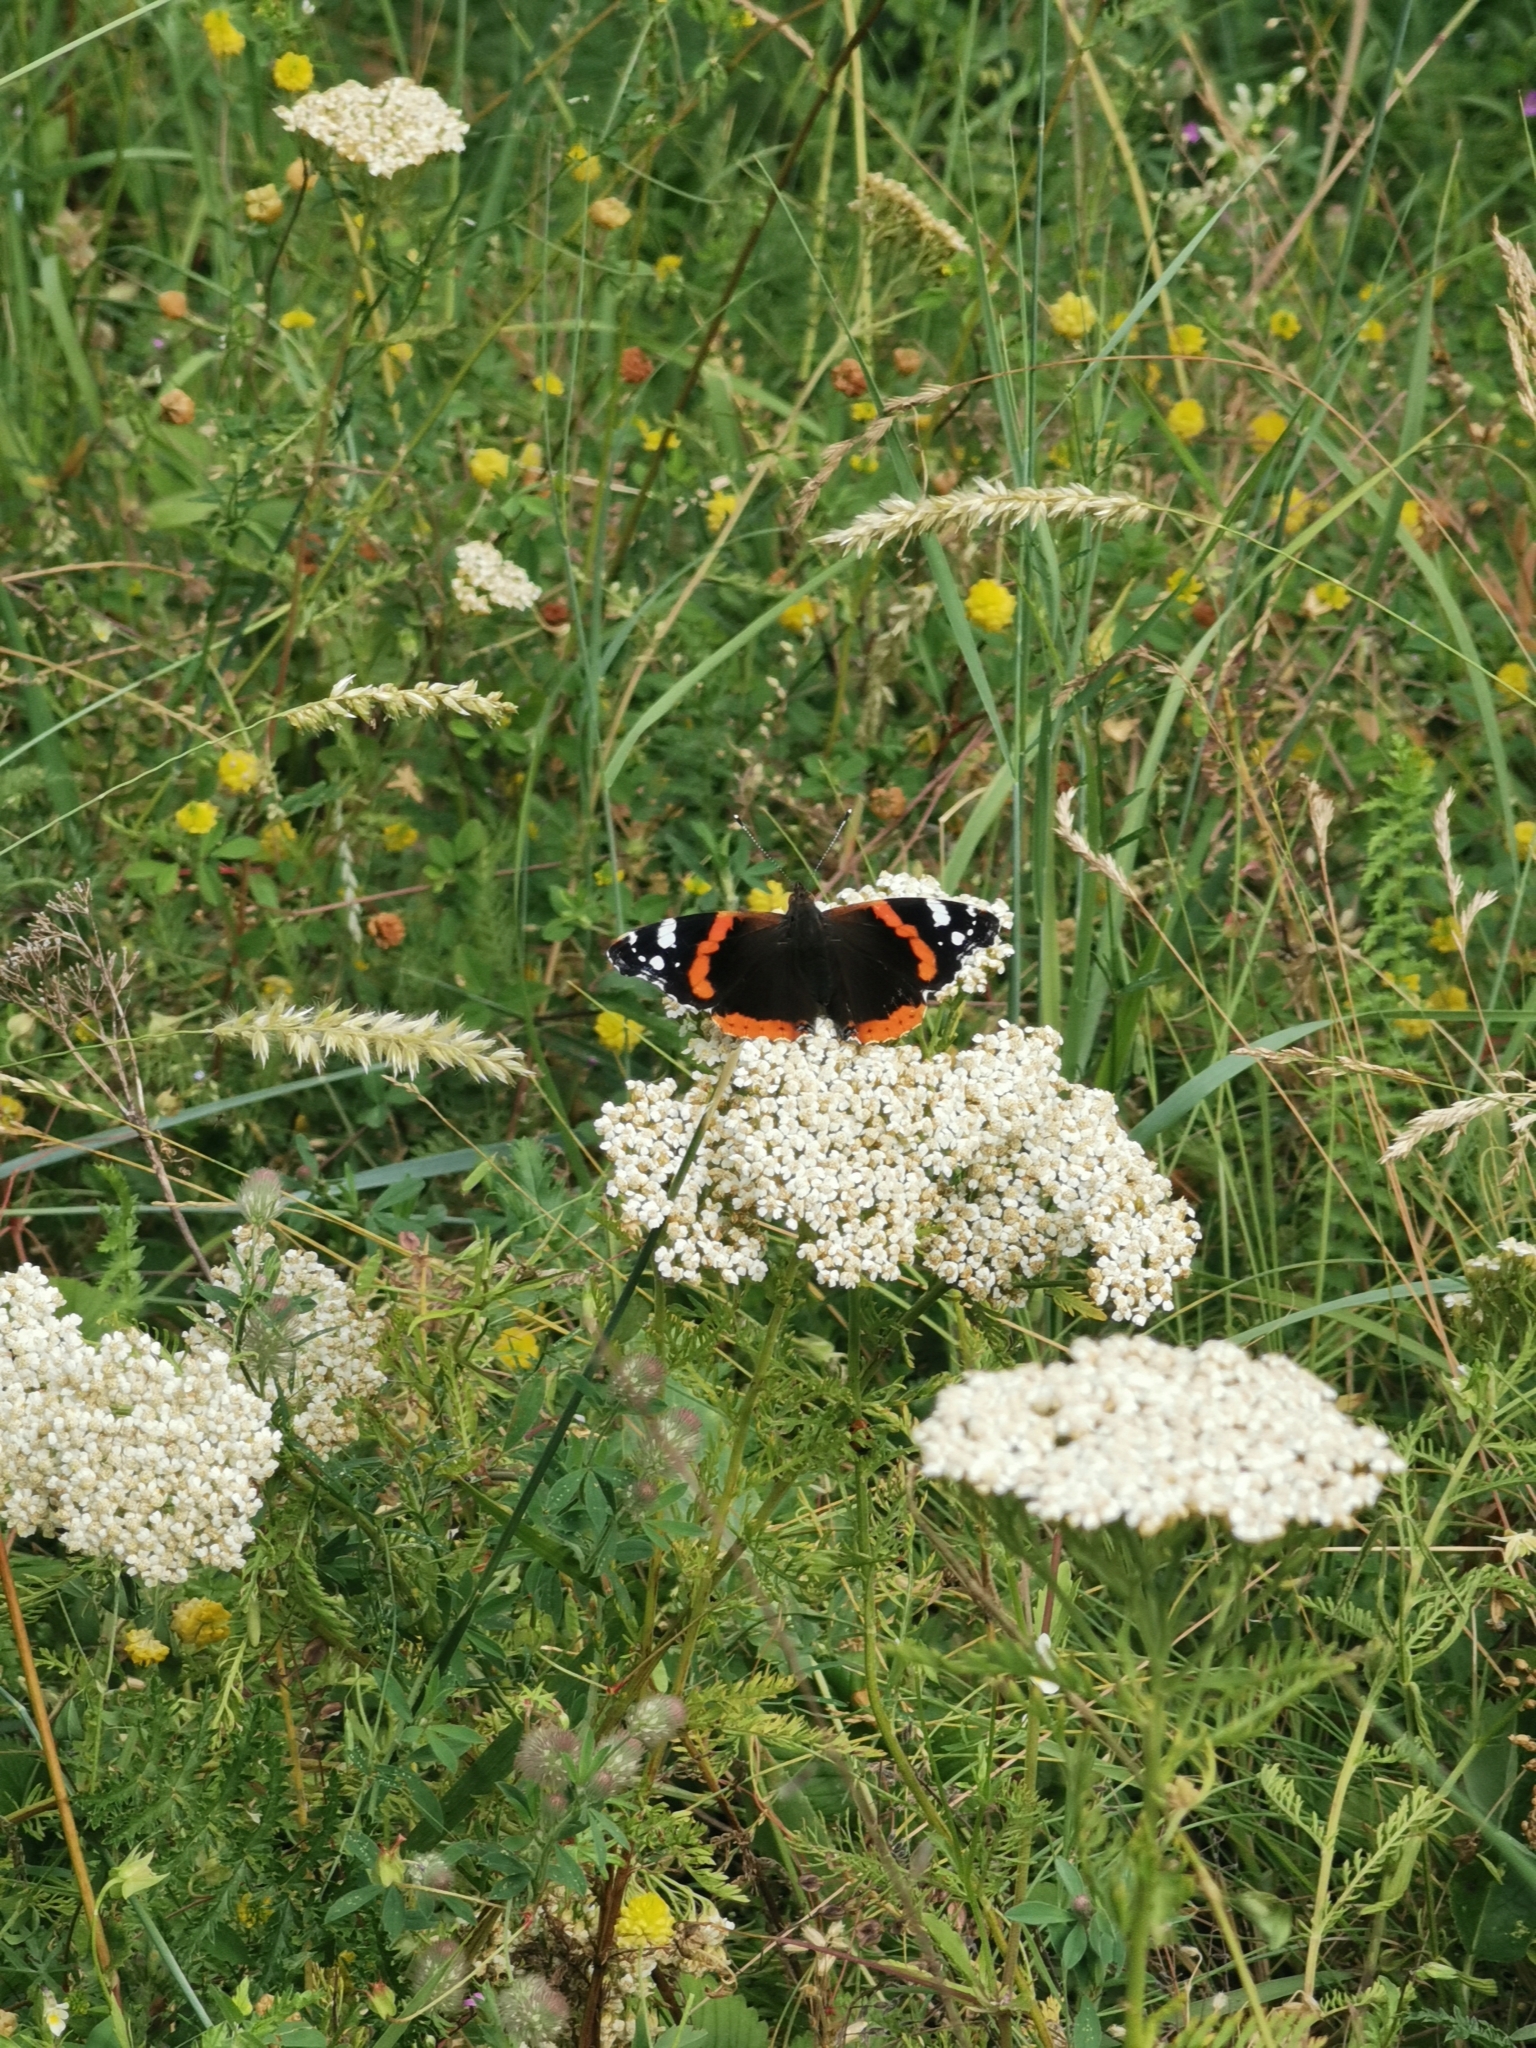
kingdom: Animalia
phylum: Arthropoda
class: Insecta
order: Lepidoptera
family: Nymphalidae
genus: Vanessa
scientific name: Vanessa atalanta
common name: Red admiral
